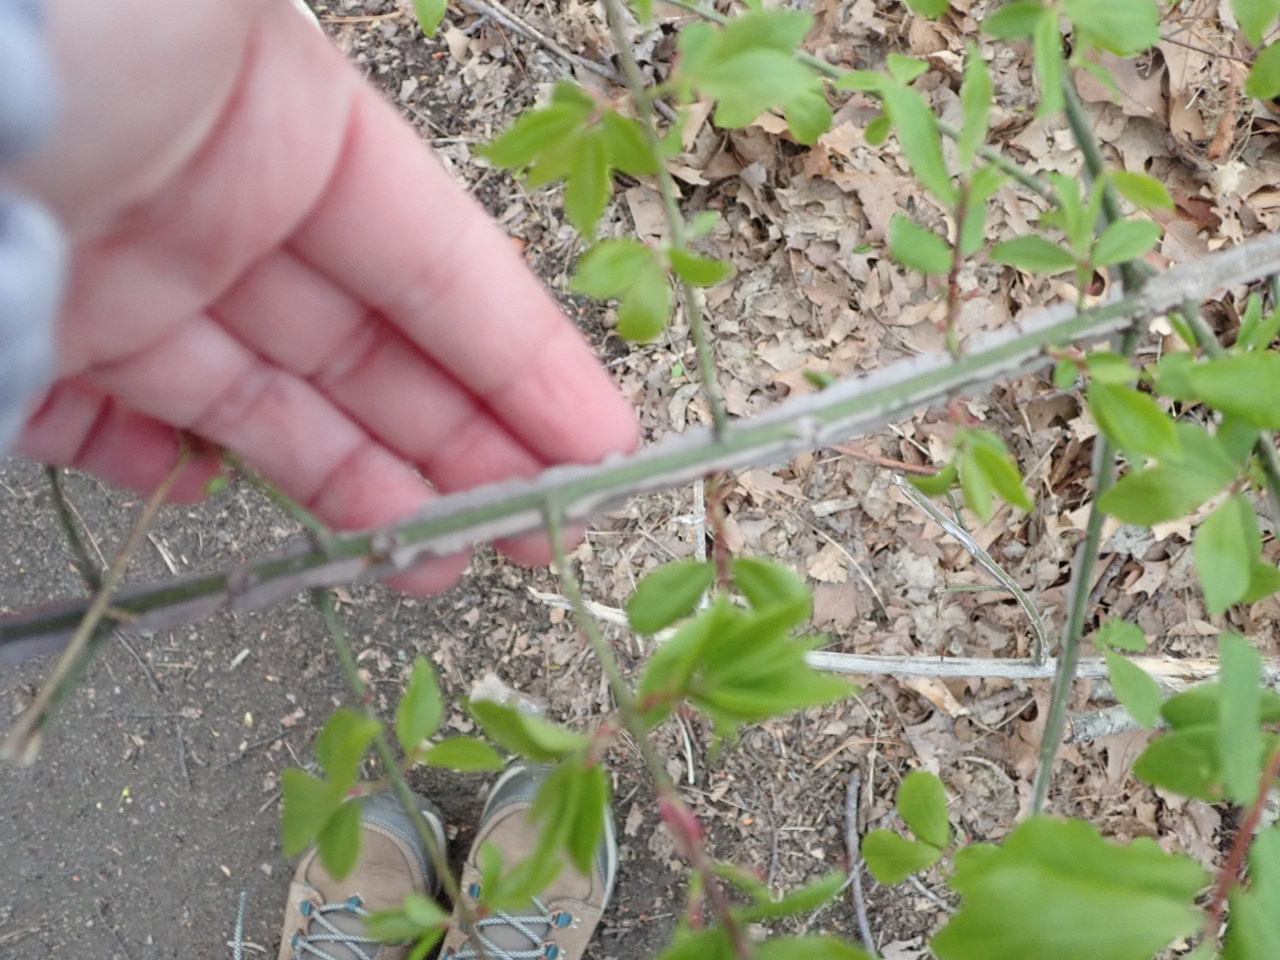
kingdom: Plantae
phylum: Tracheophyta
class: Magnoliopsida
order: Celastrales
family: Celastraceae
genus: Euonymus
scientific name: Euonymus alatus
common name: Winged euonymus
